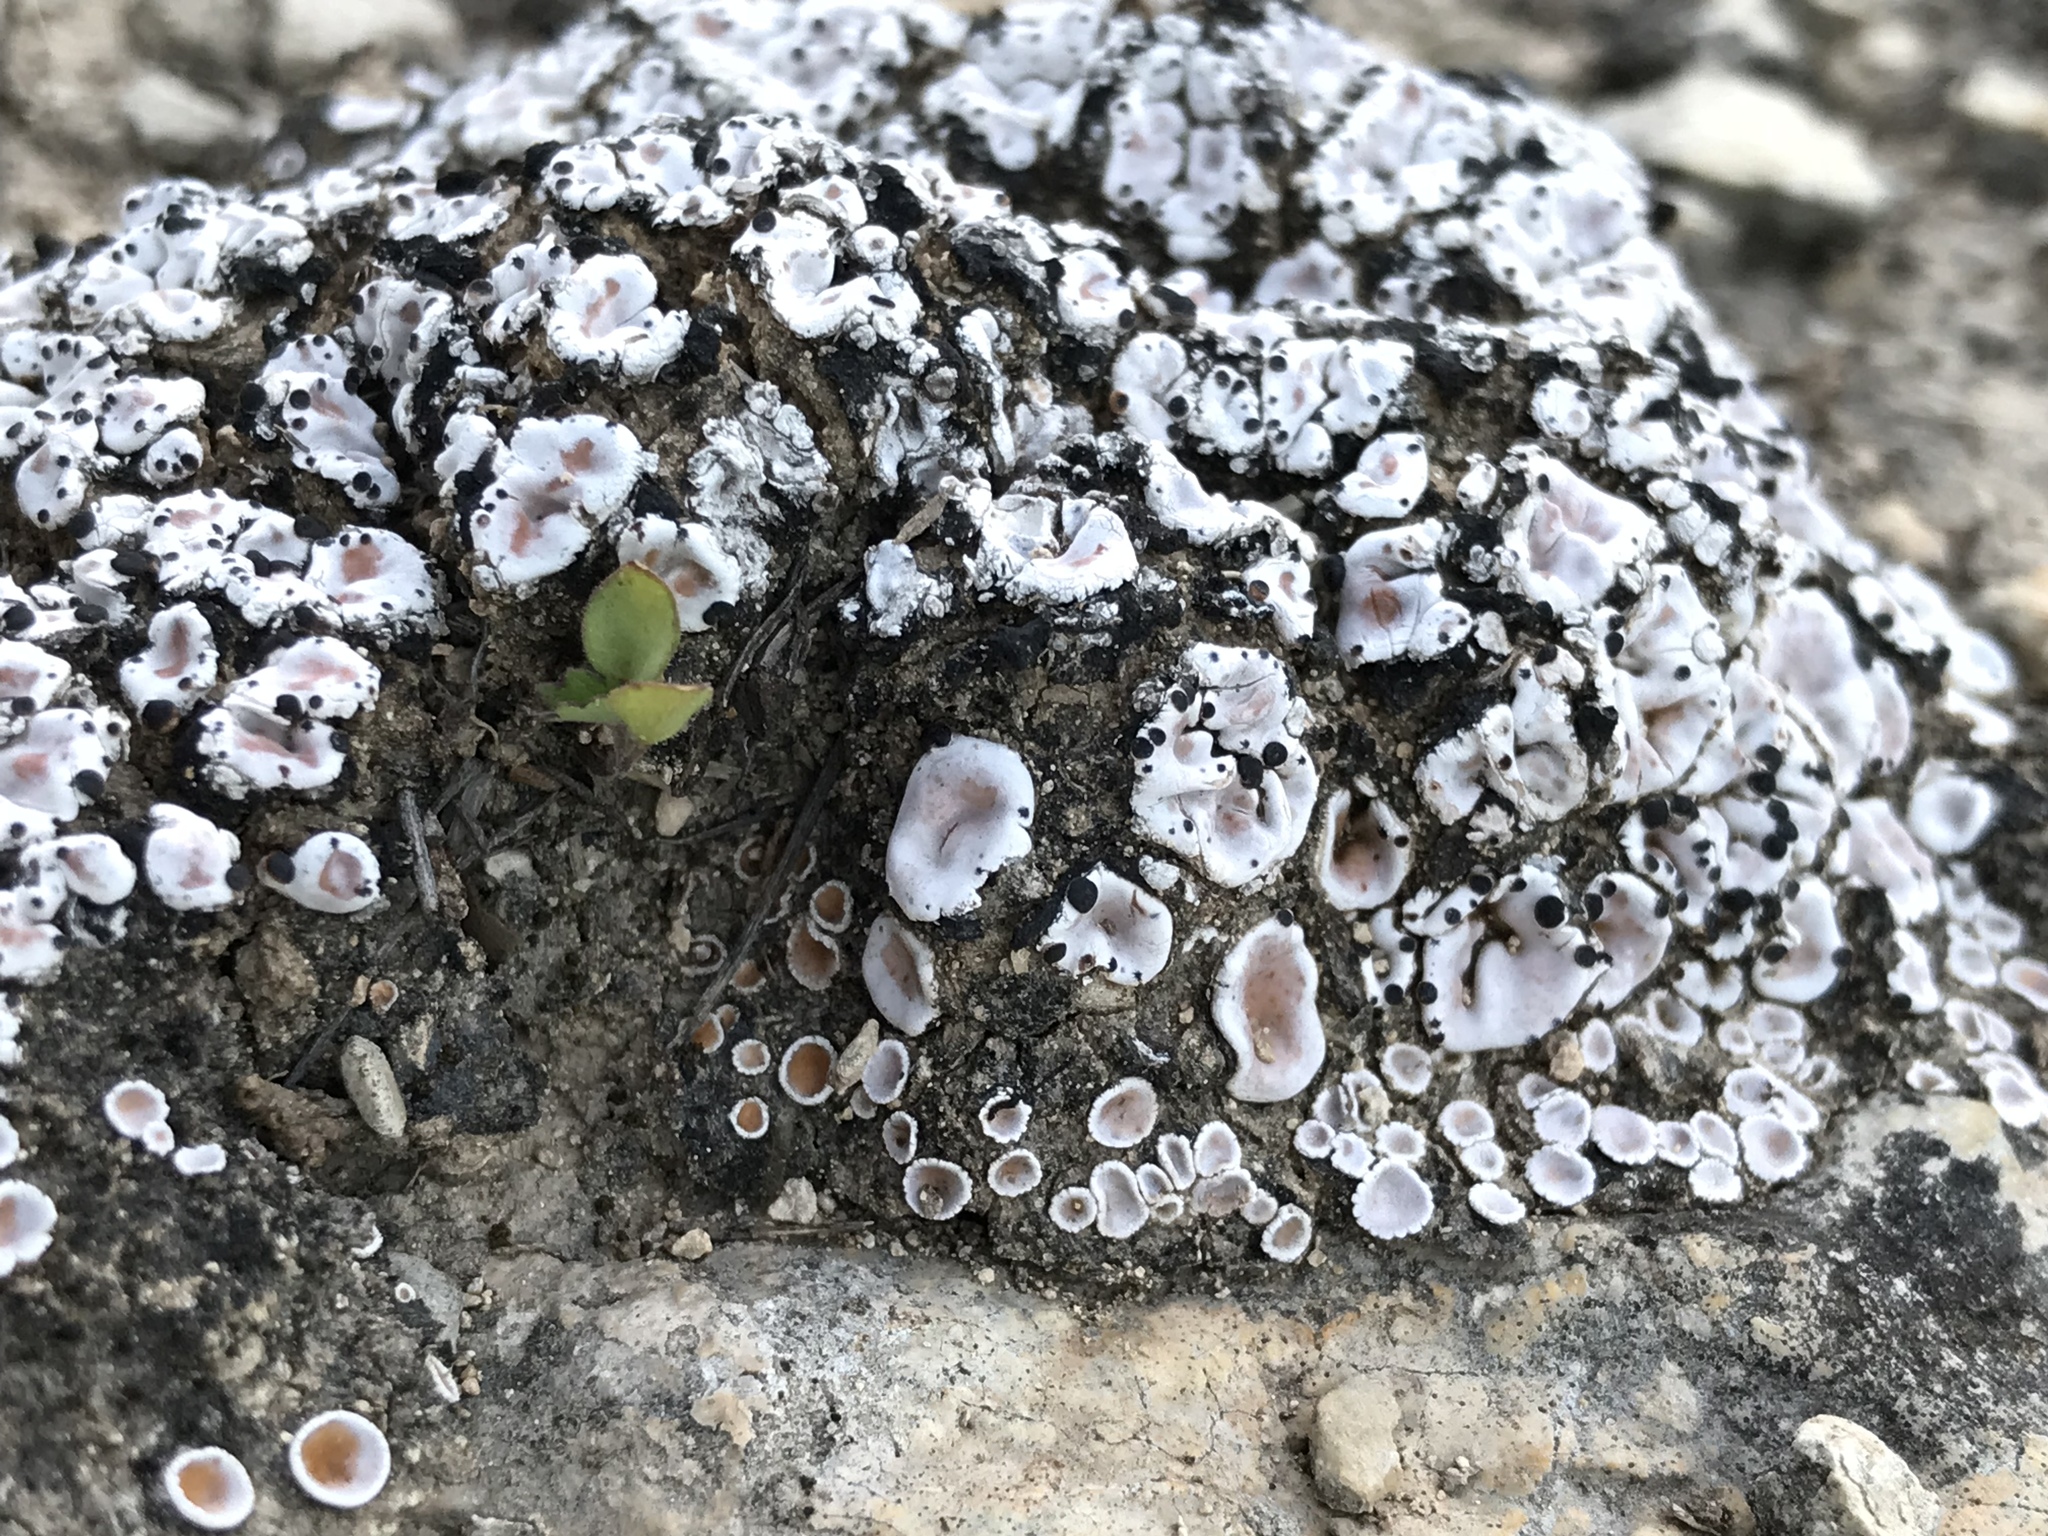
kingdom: Fungi
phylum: Ascomycota
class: Lecanoromycetes
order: Lecanorales
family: Psoraceae
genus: Psora
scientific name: Psora crenata
